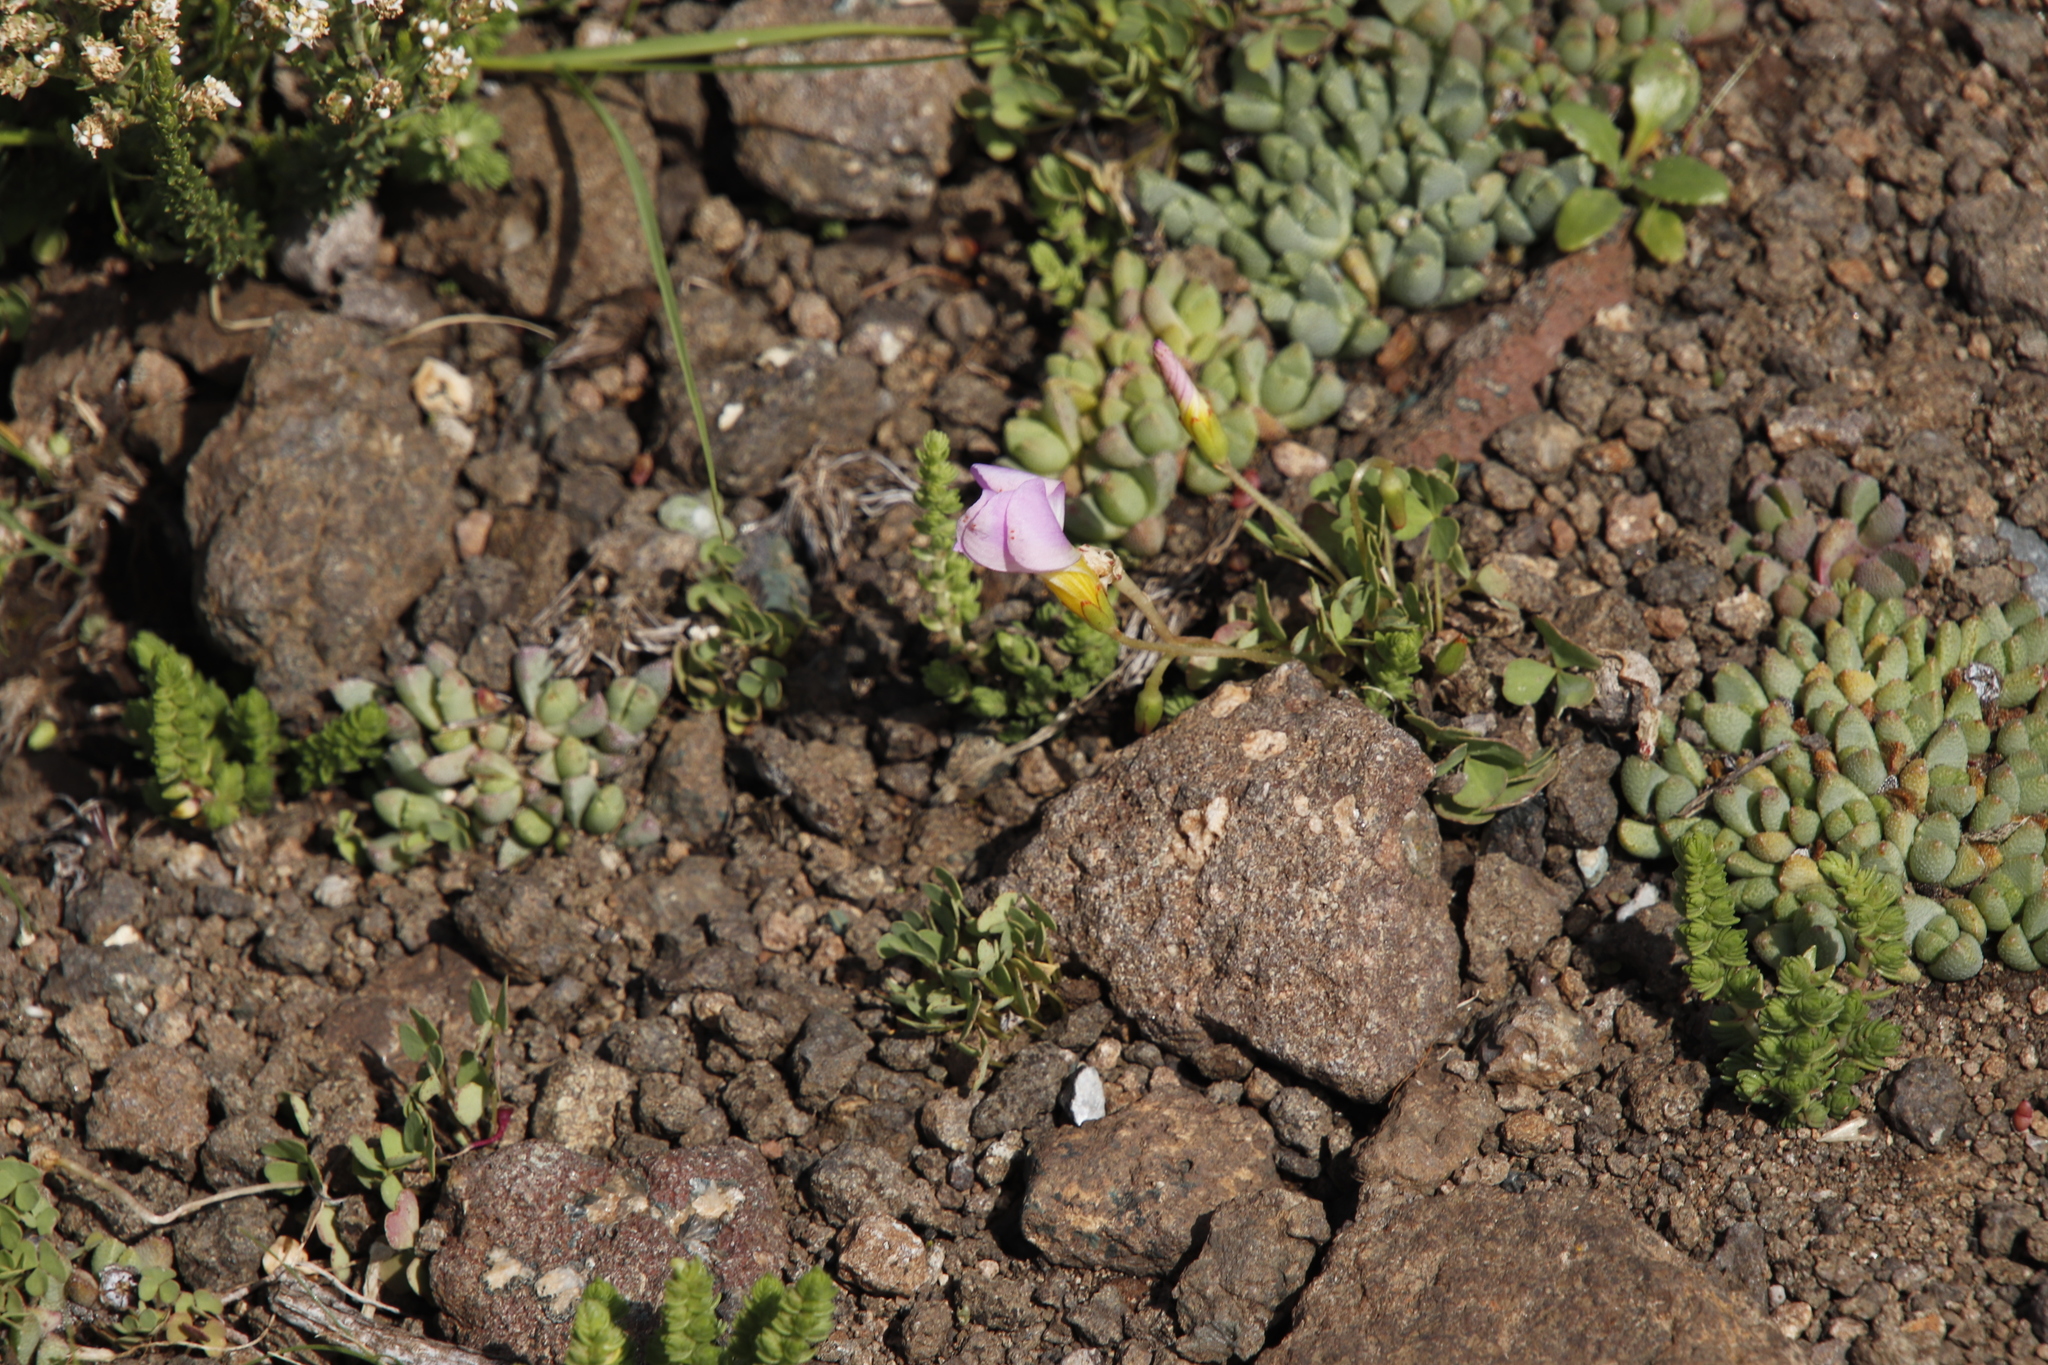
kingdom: Plantae
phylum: Tracheophyta
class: Magnoliopsida
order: Oxalidales
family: Oxalidaceae
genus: Oxalis
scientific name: Oxalis obliquifolia
